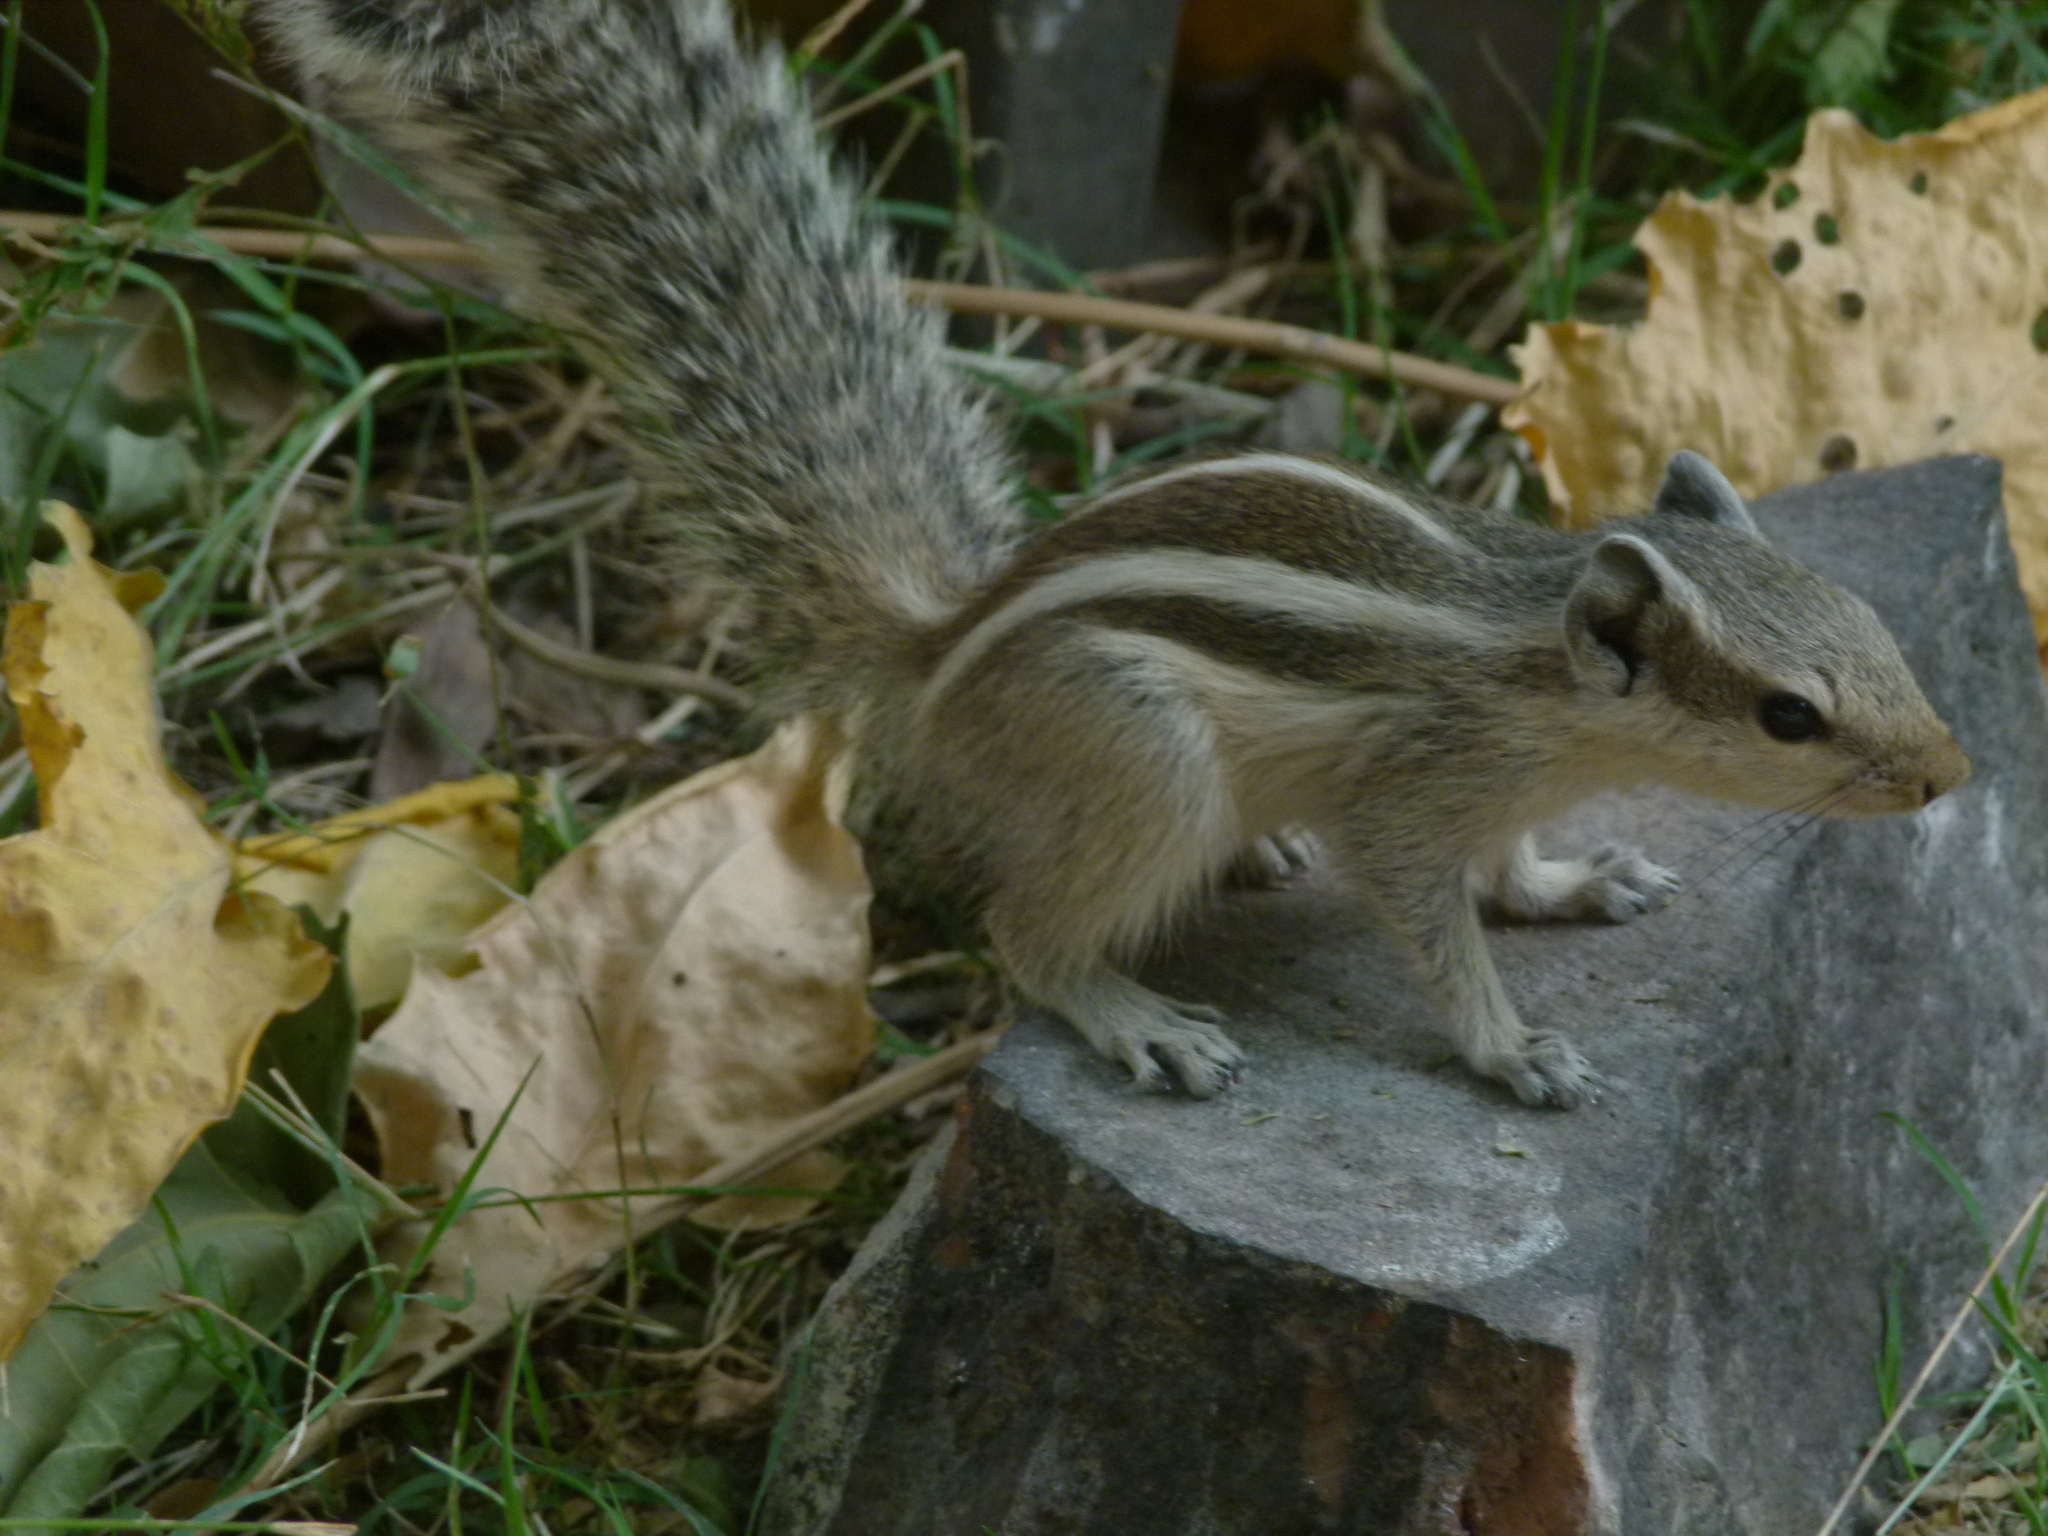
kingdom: Animalia
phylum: Chordata
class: Mammalia
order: Rodentia
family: Sciuridae
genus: Funambulus
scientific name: Funambulus pennantii
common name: Northern palm squirrel
